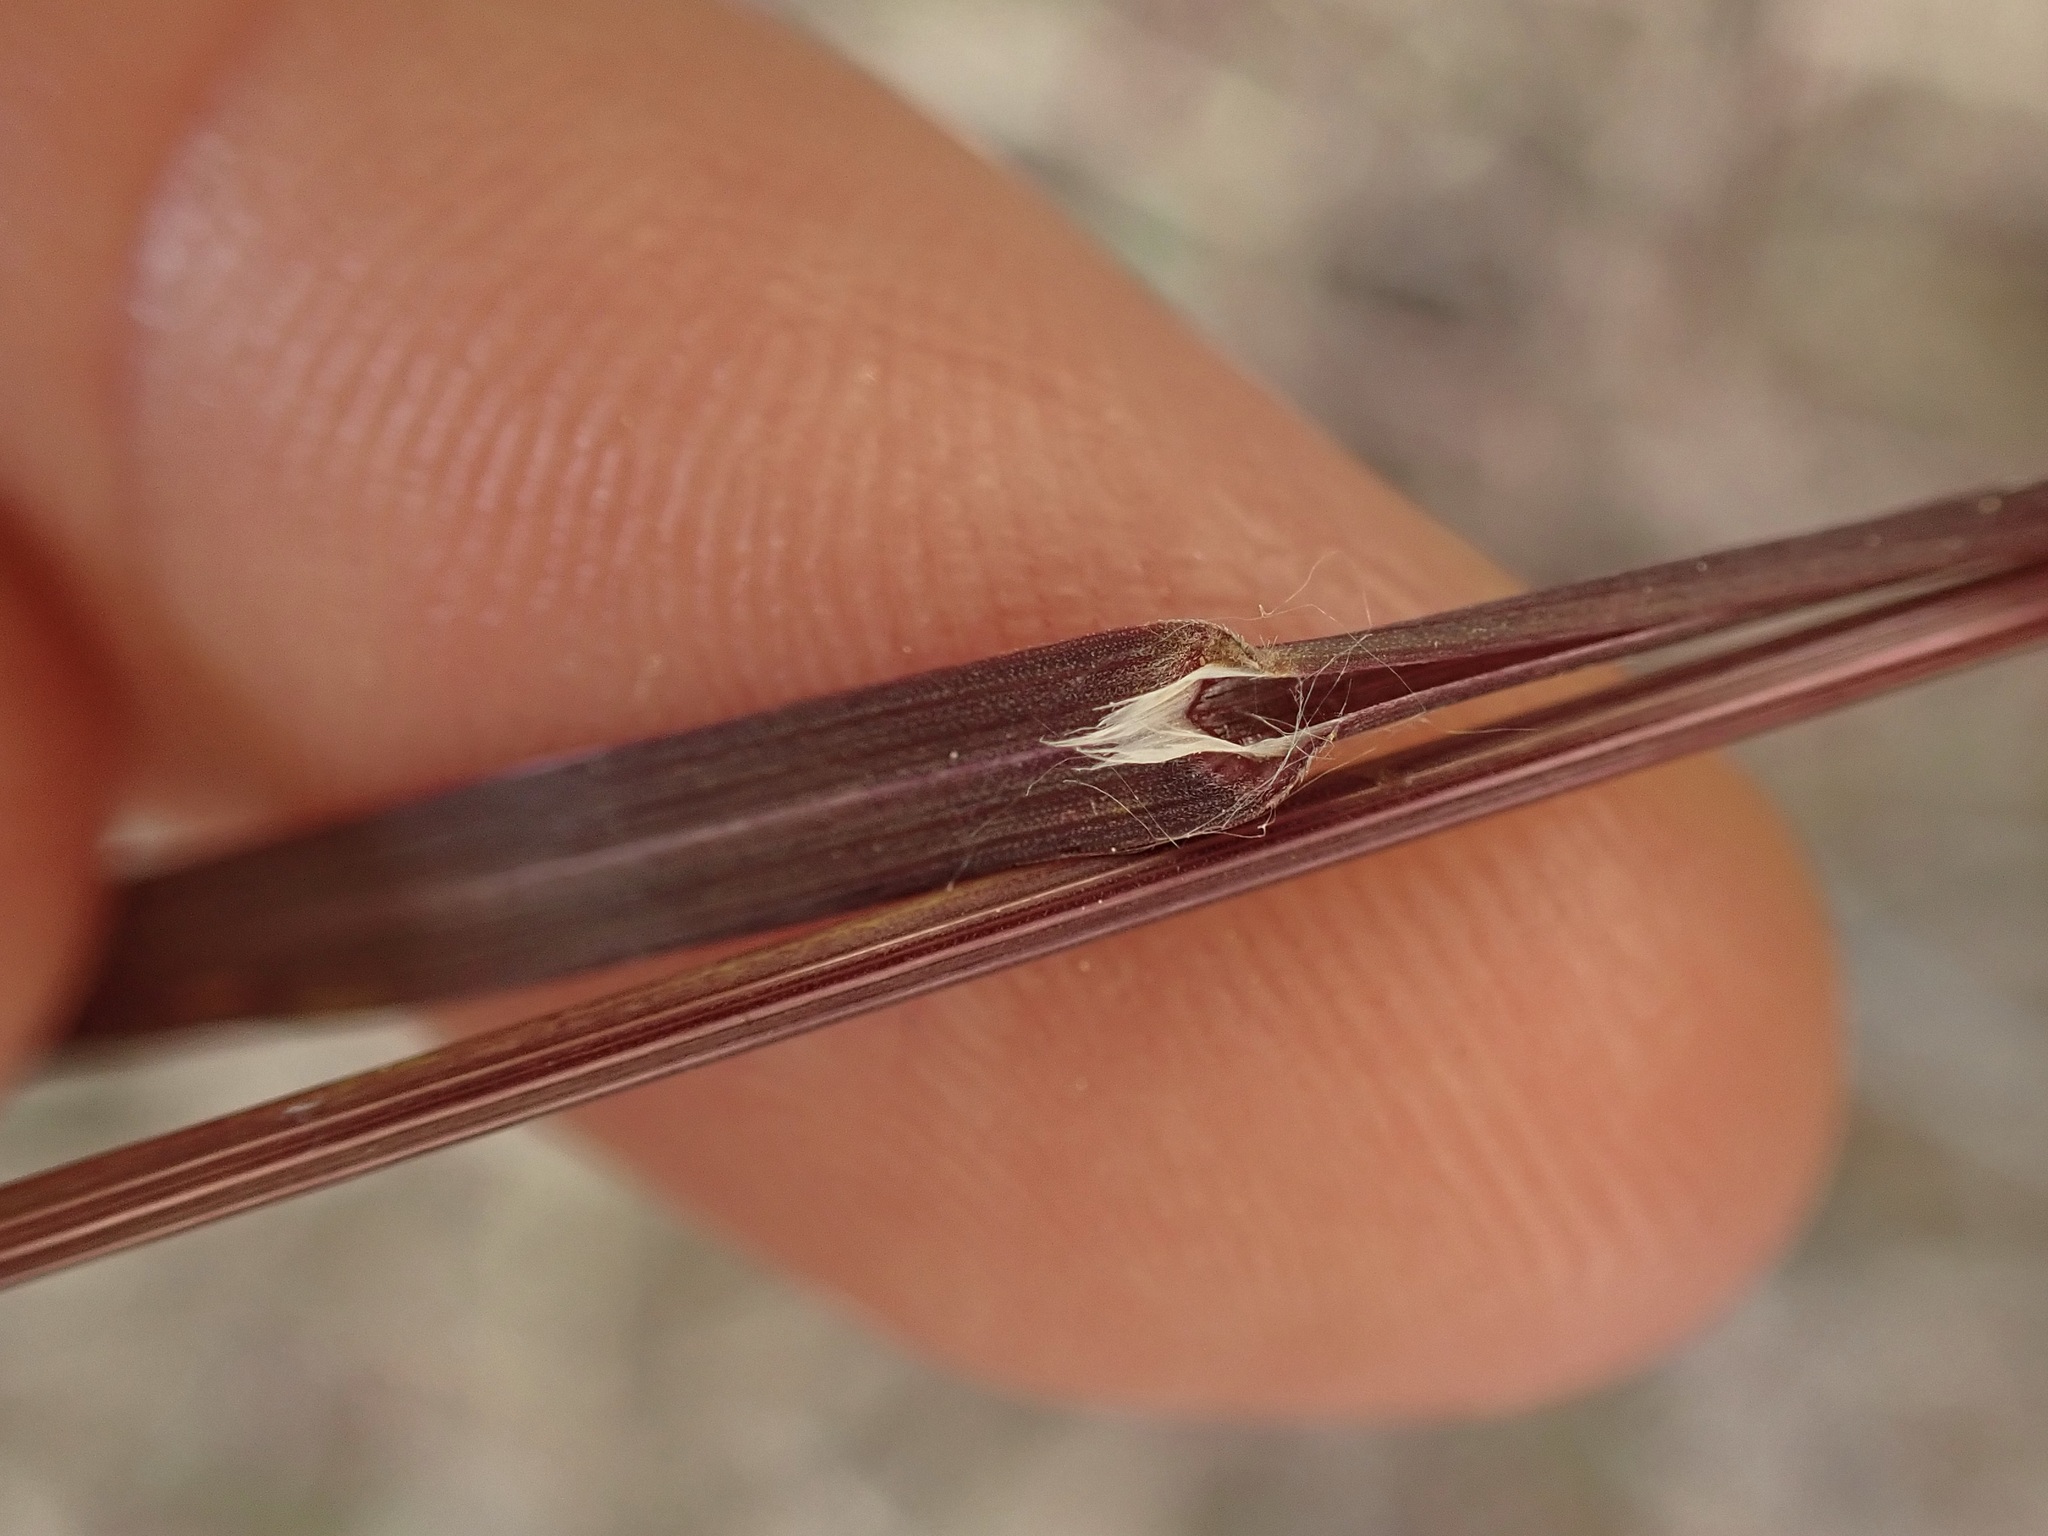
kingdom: Plantae
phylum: Tracheophyta
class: Liliopsida
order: Poales
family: Poaceae
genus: Bromus
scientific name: Bromus sterilis
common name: Poverty brome
